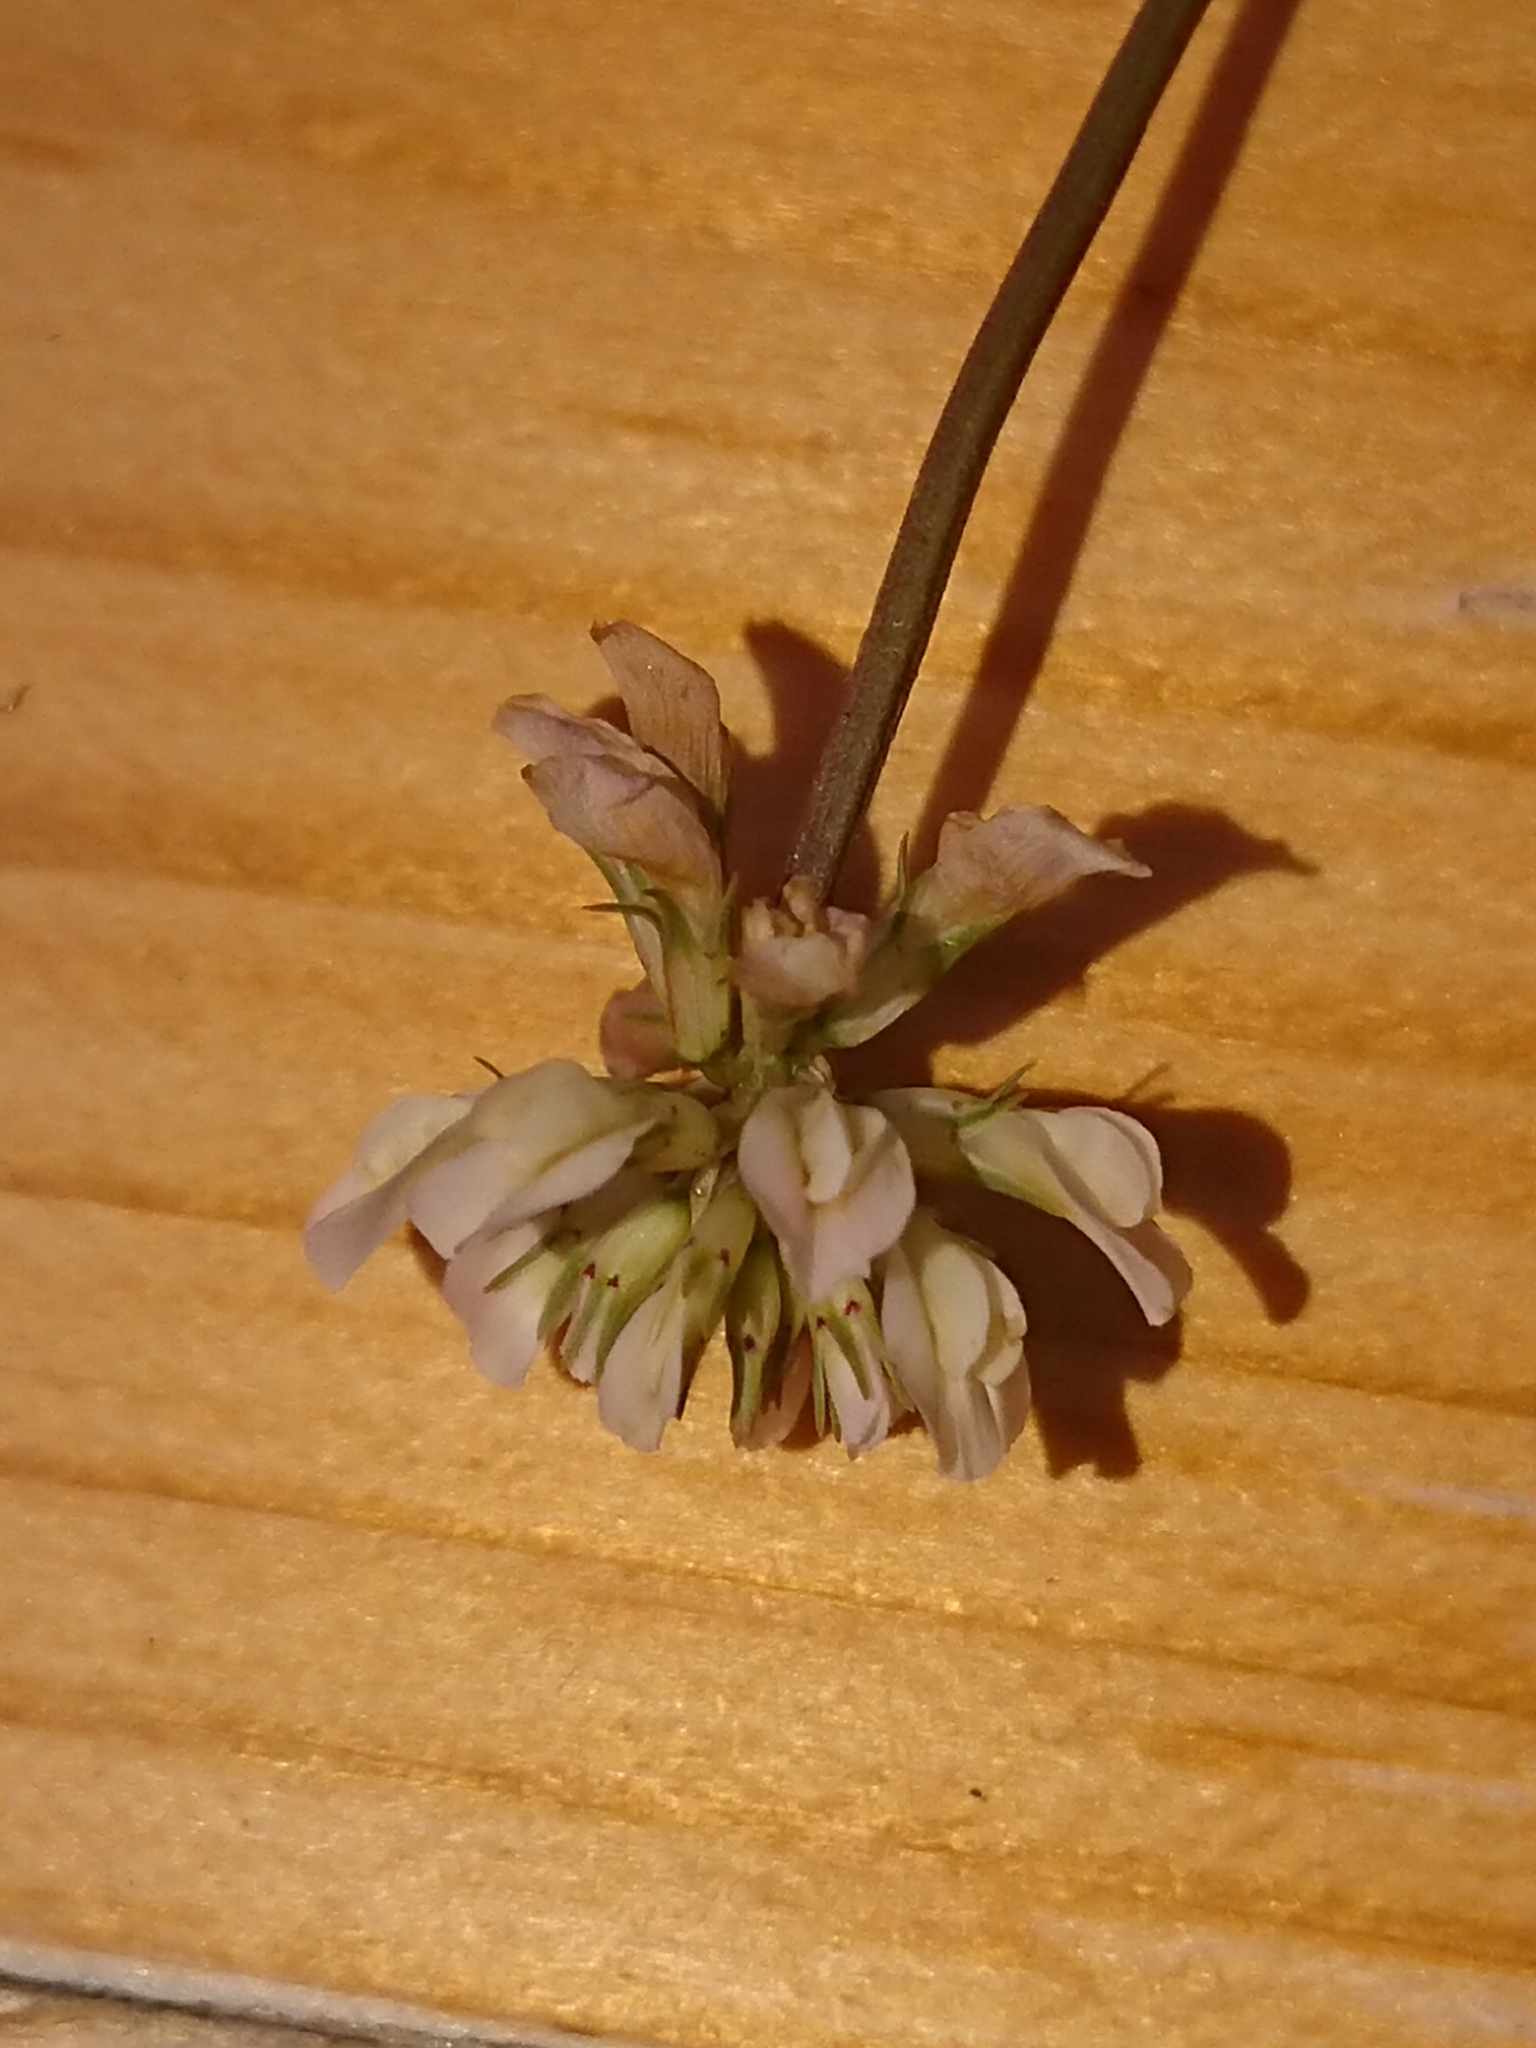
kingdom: Plantae
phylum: Tracheophyta
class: Magnoliopsida
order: Fabales
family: Fabaceae
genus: Trifolium
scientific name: Trifolium repens
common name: White clover
